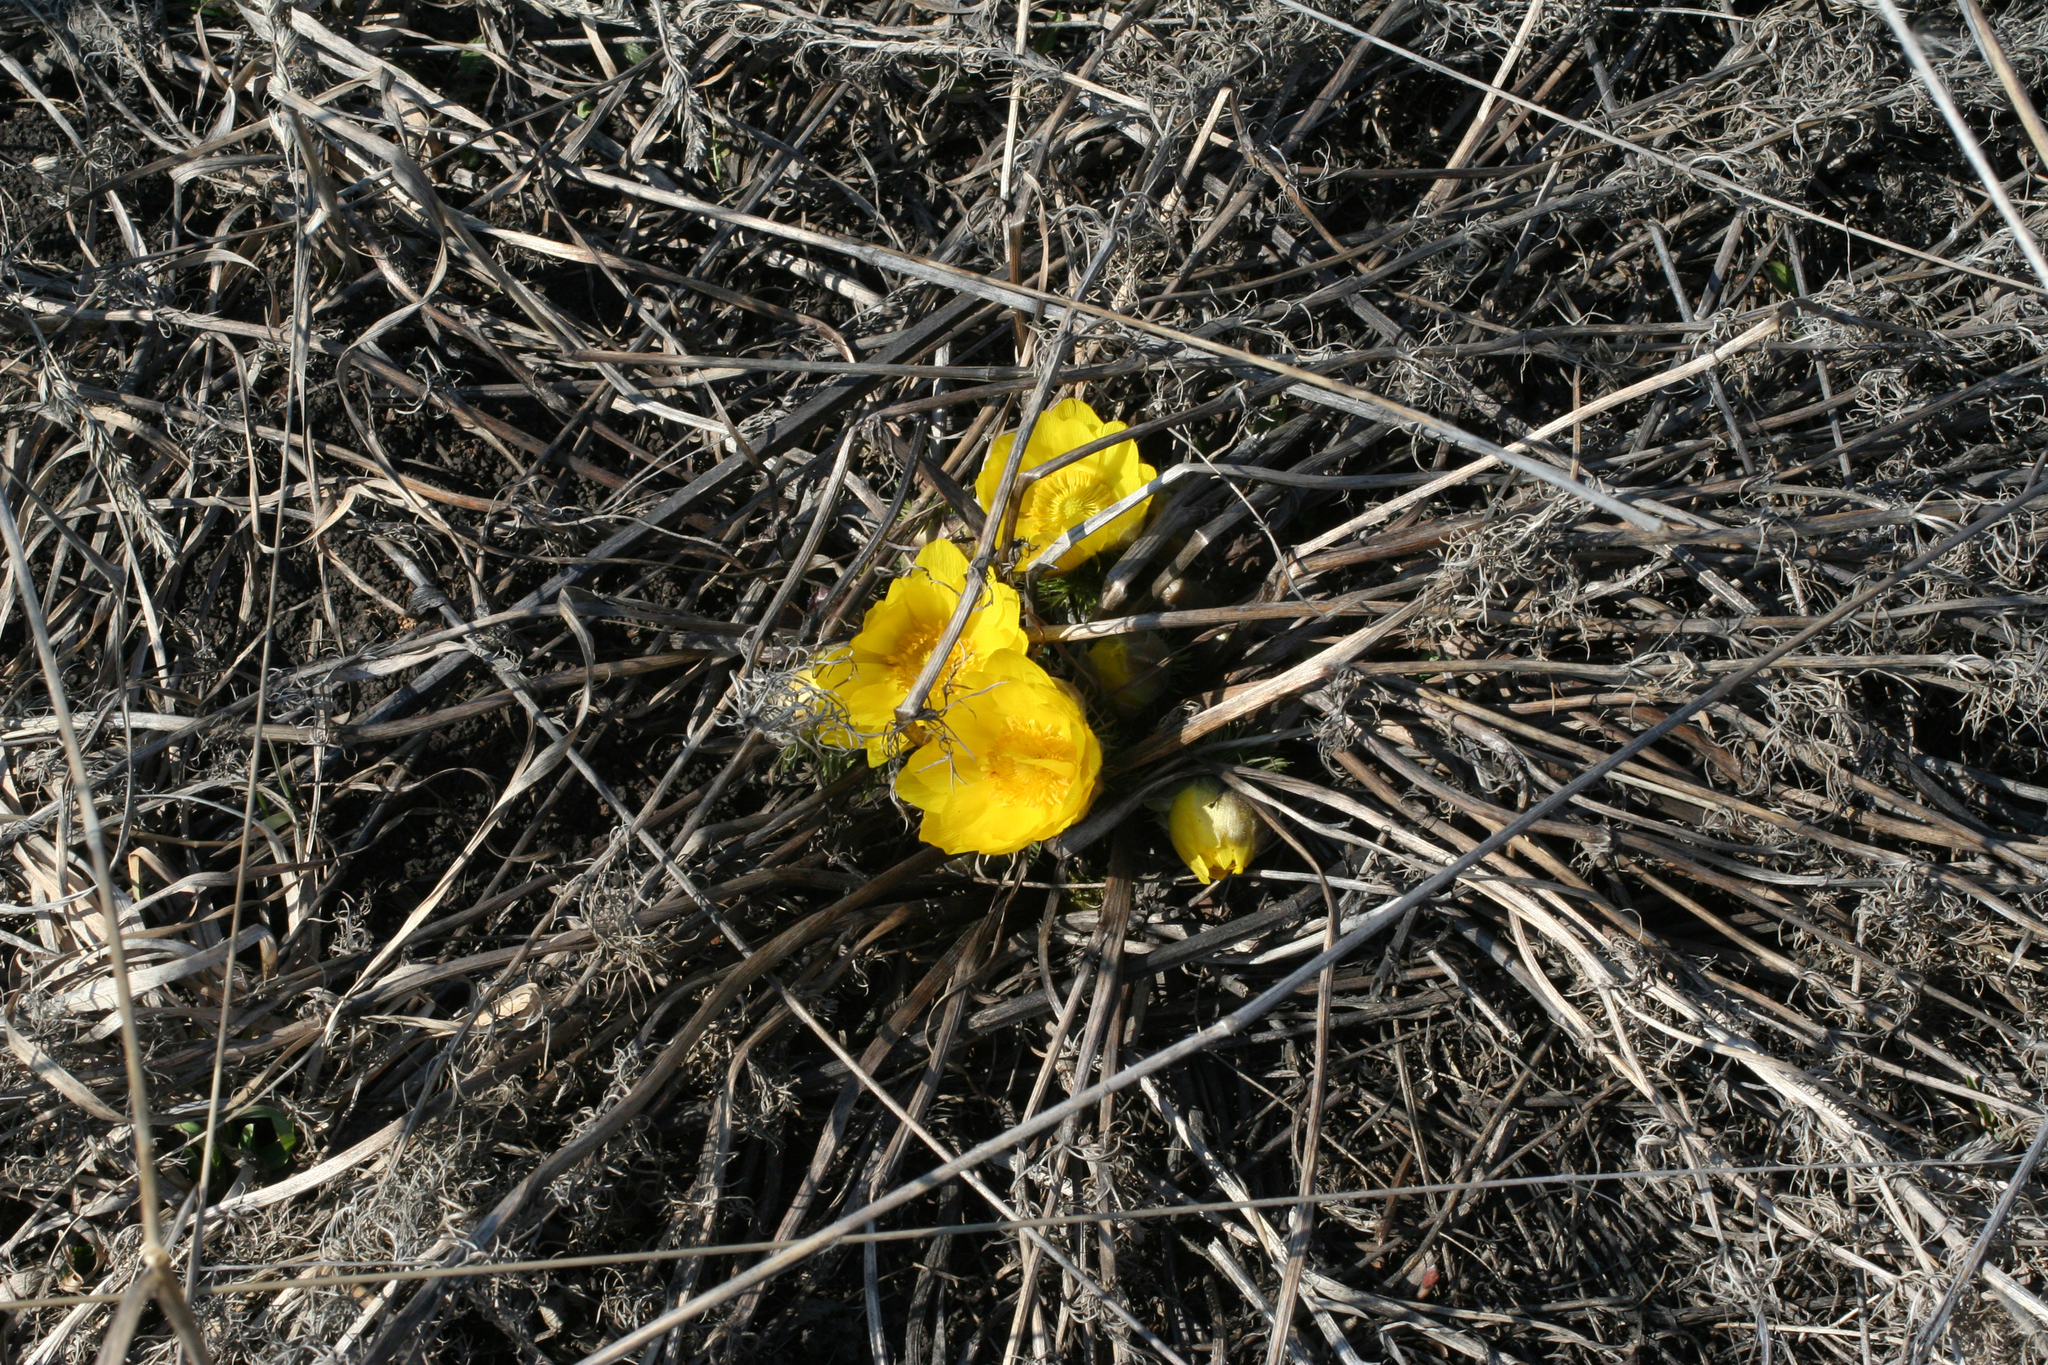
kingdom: Plantae
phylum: Tracheophyta
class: Magnoliopsida
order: Ranunculales
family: Ranunculaceae
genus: Adonis
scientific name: Adonis vernalis
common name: Yellow pheasants-eye
